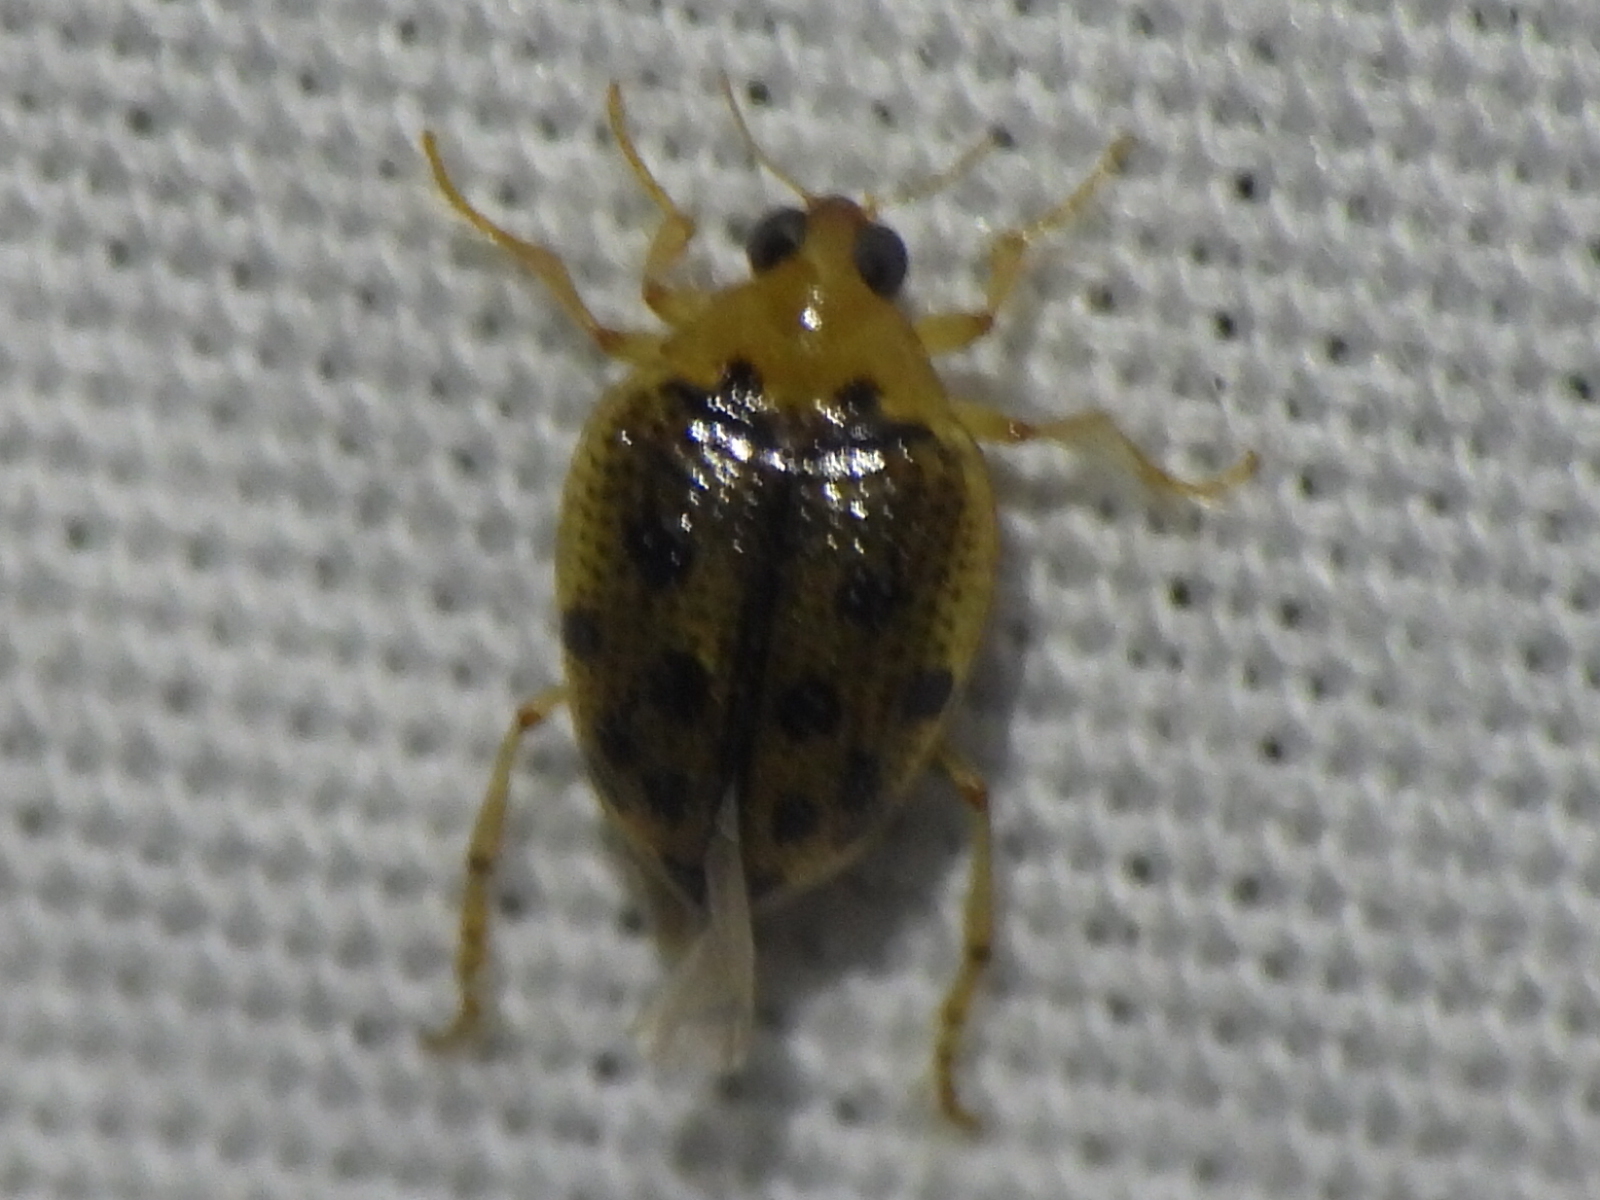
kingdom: Animalia
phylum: Arthropoda
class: Insecta
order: Coleoptera
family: Haliplidae
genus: Peltodytes
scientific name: Peltodytes litoralis
